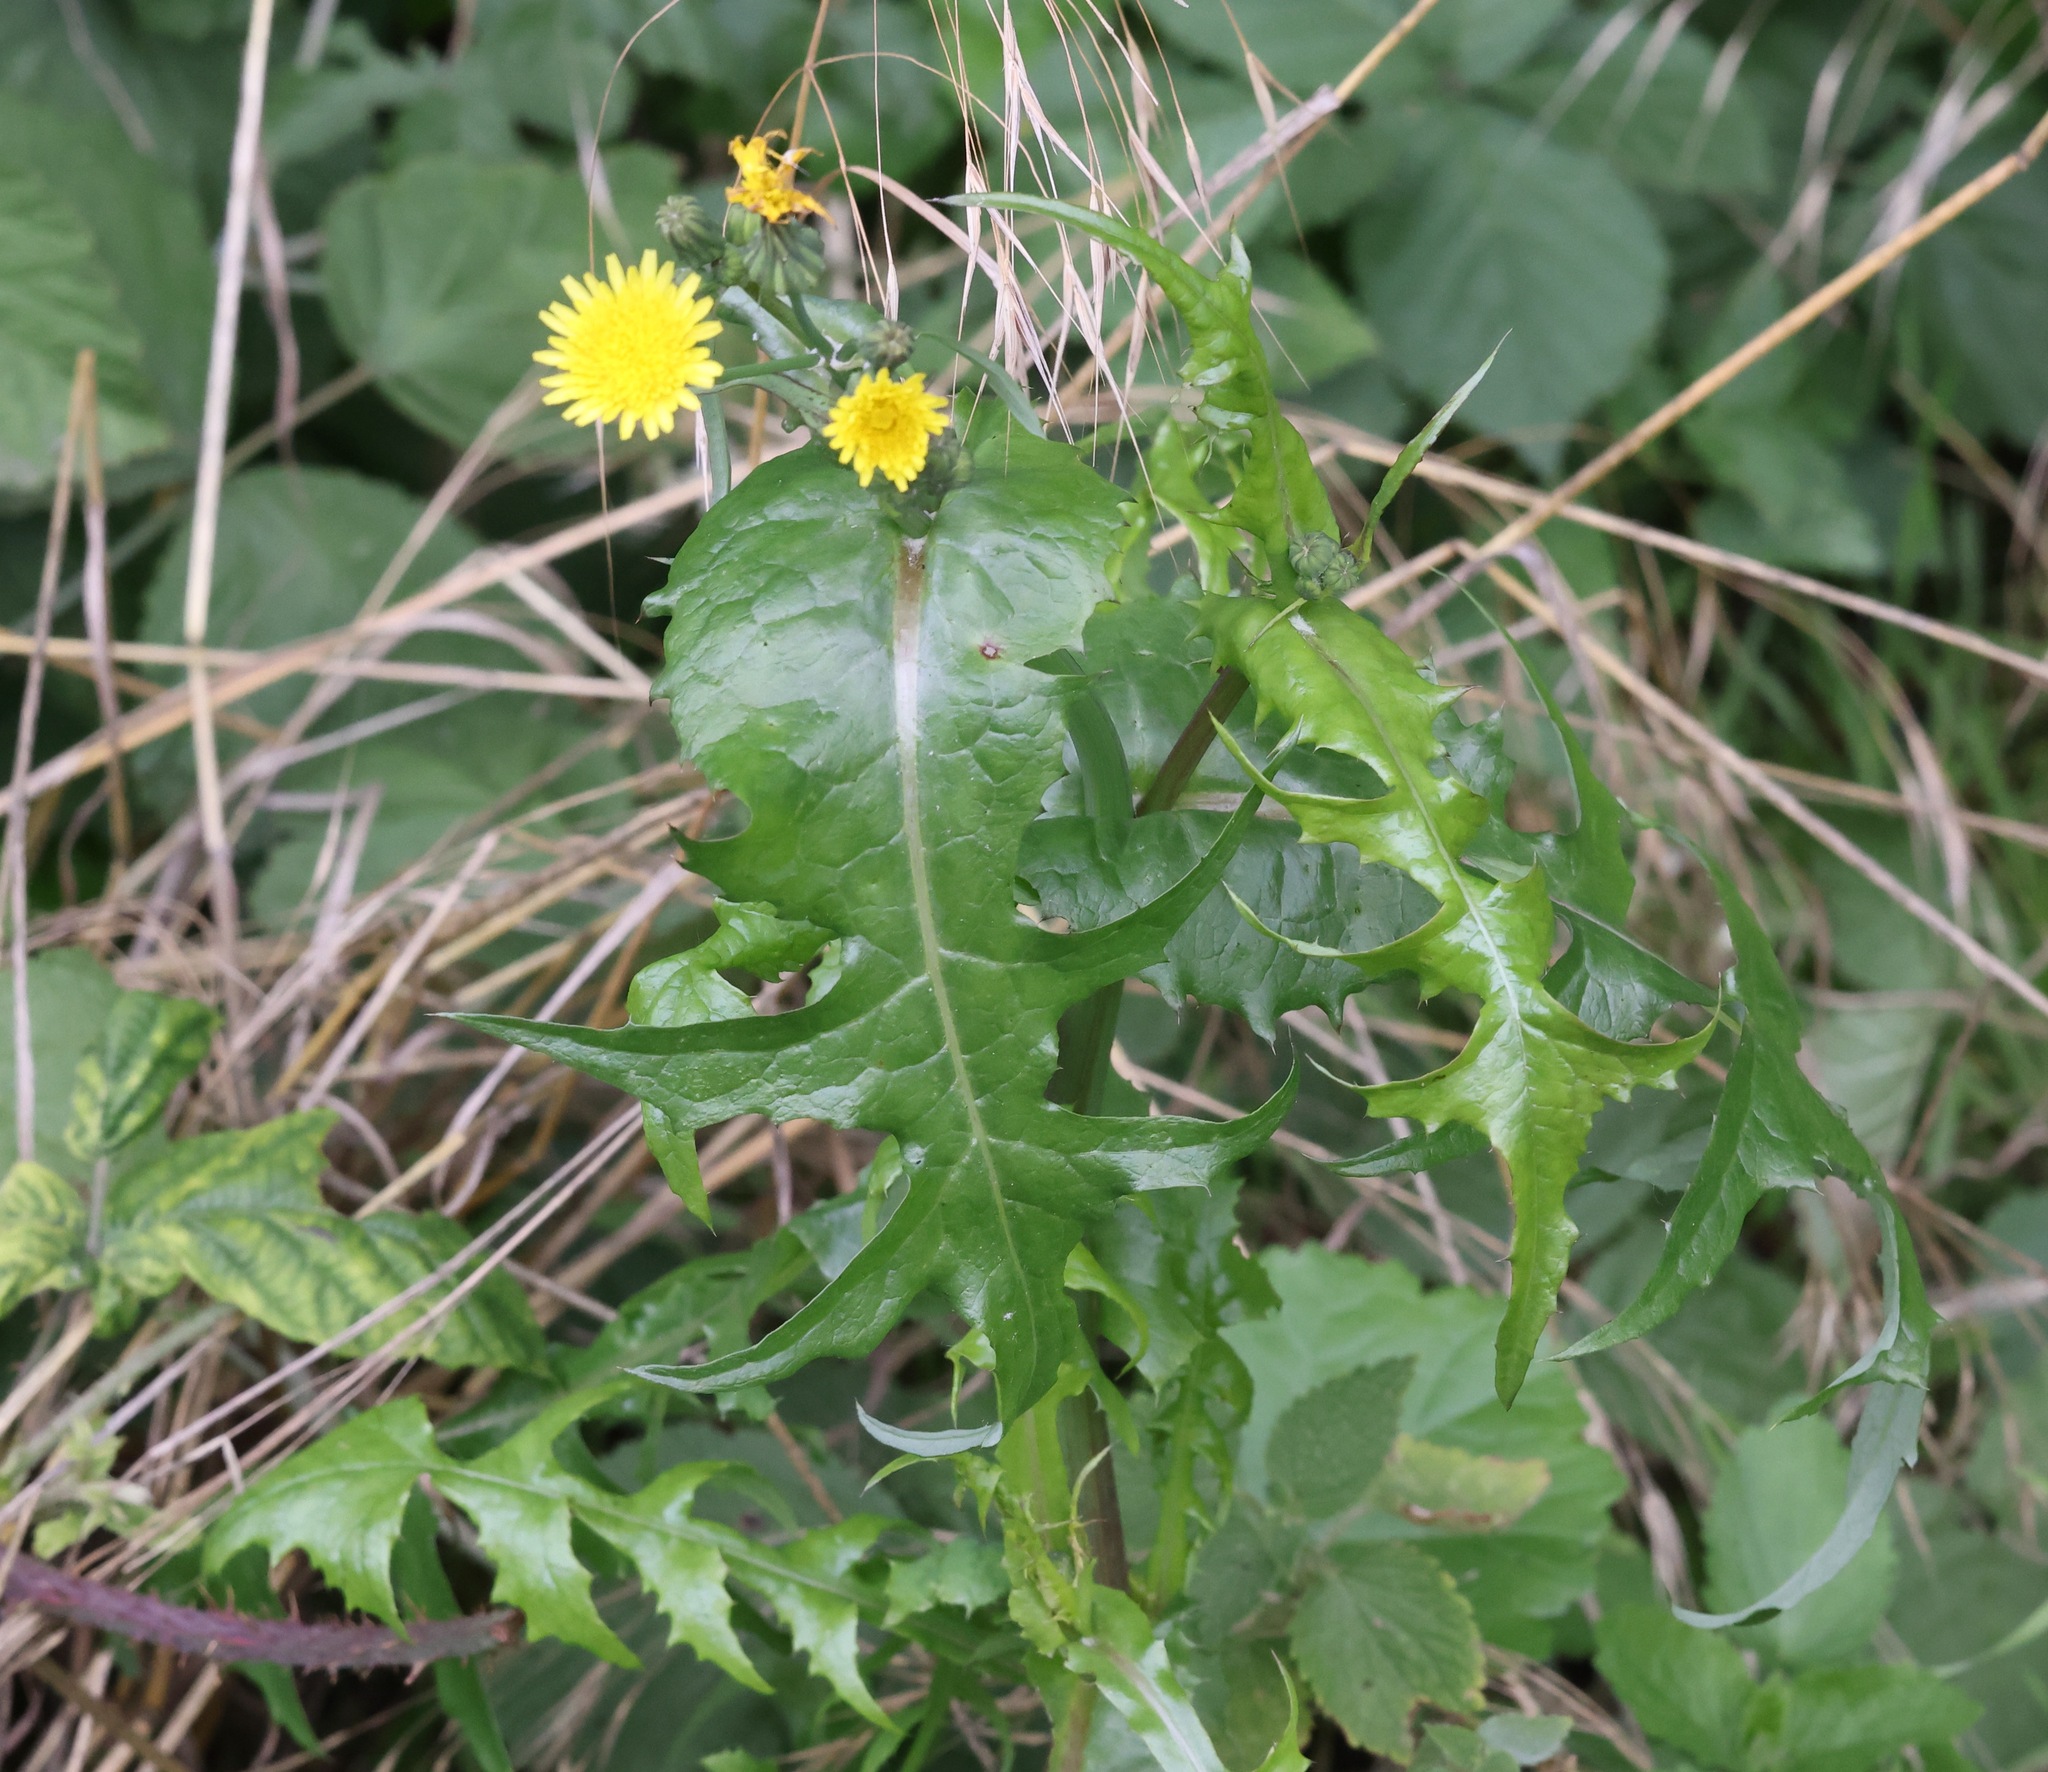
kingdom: Plantae
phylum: Tracheophyta
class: Magnoliopsida
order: Asterales
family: Asteraceae
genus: Sonchus
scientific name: Sonchus oleraceus
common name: Common sowthistle
